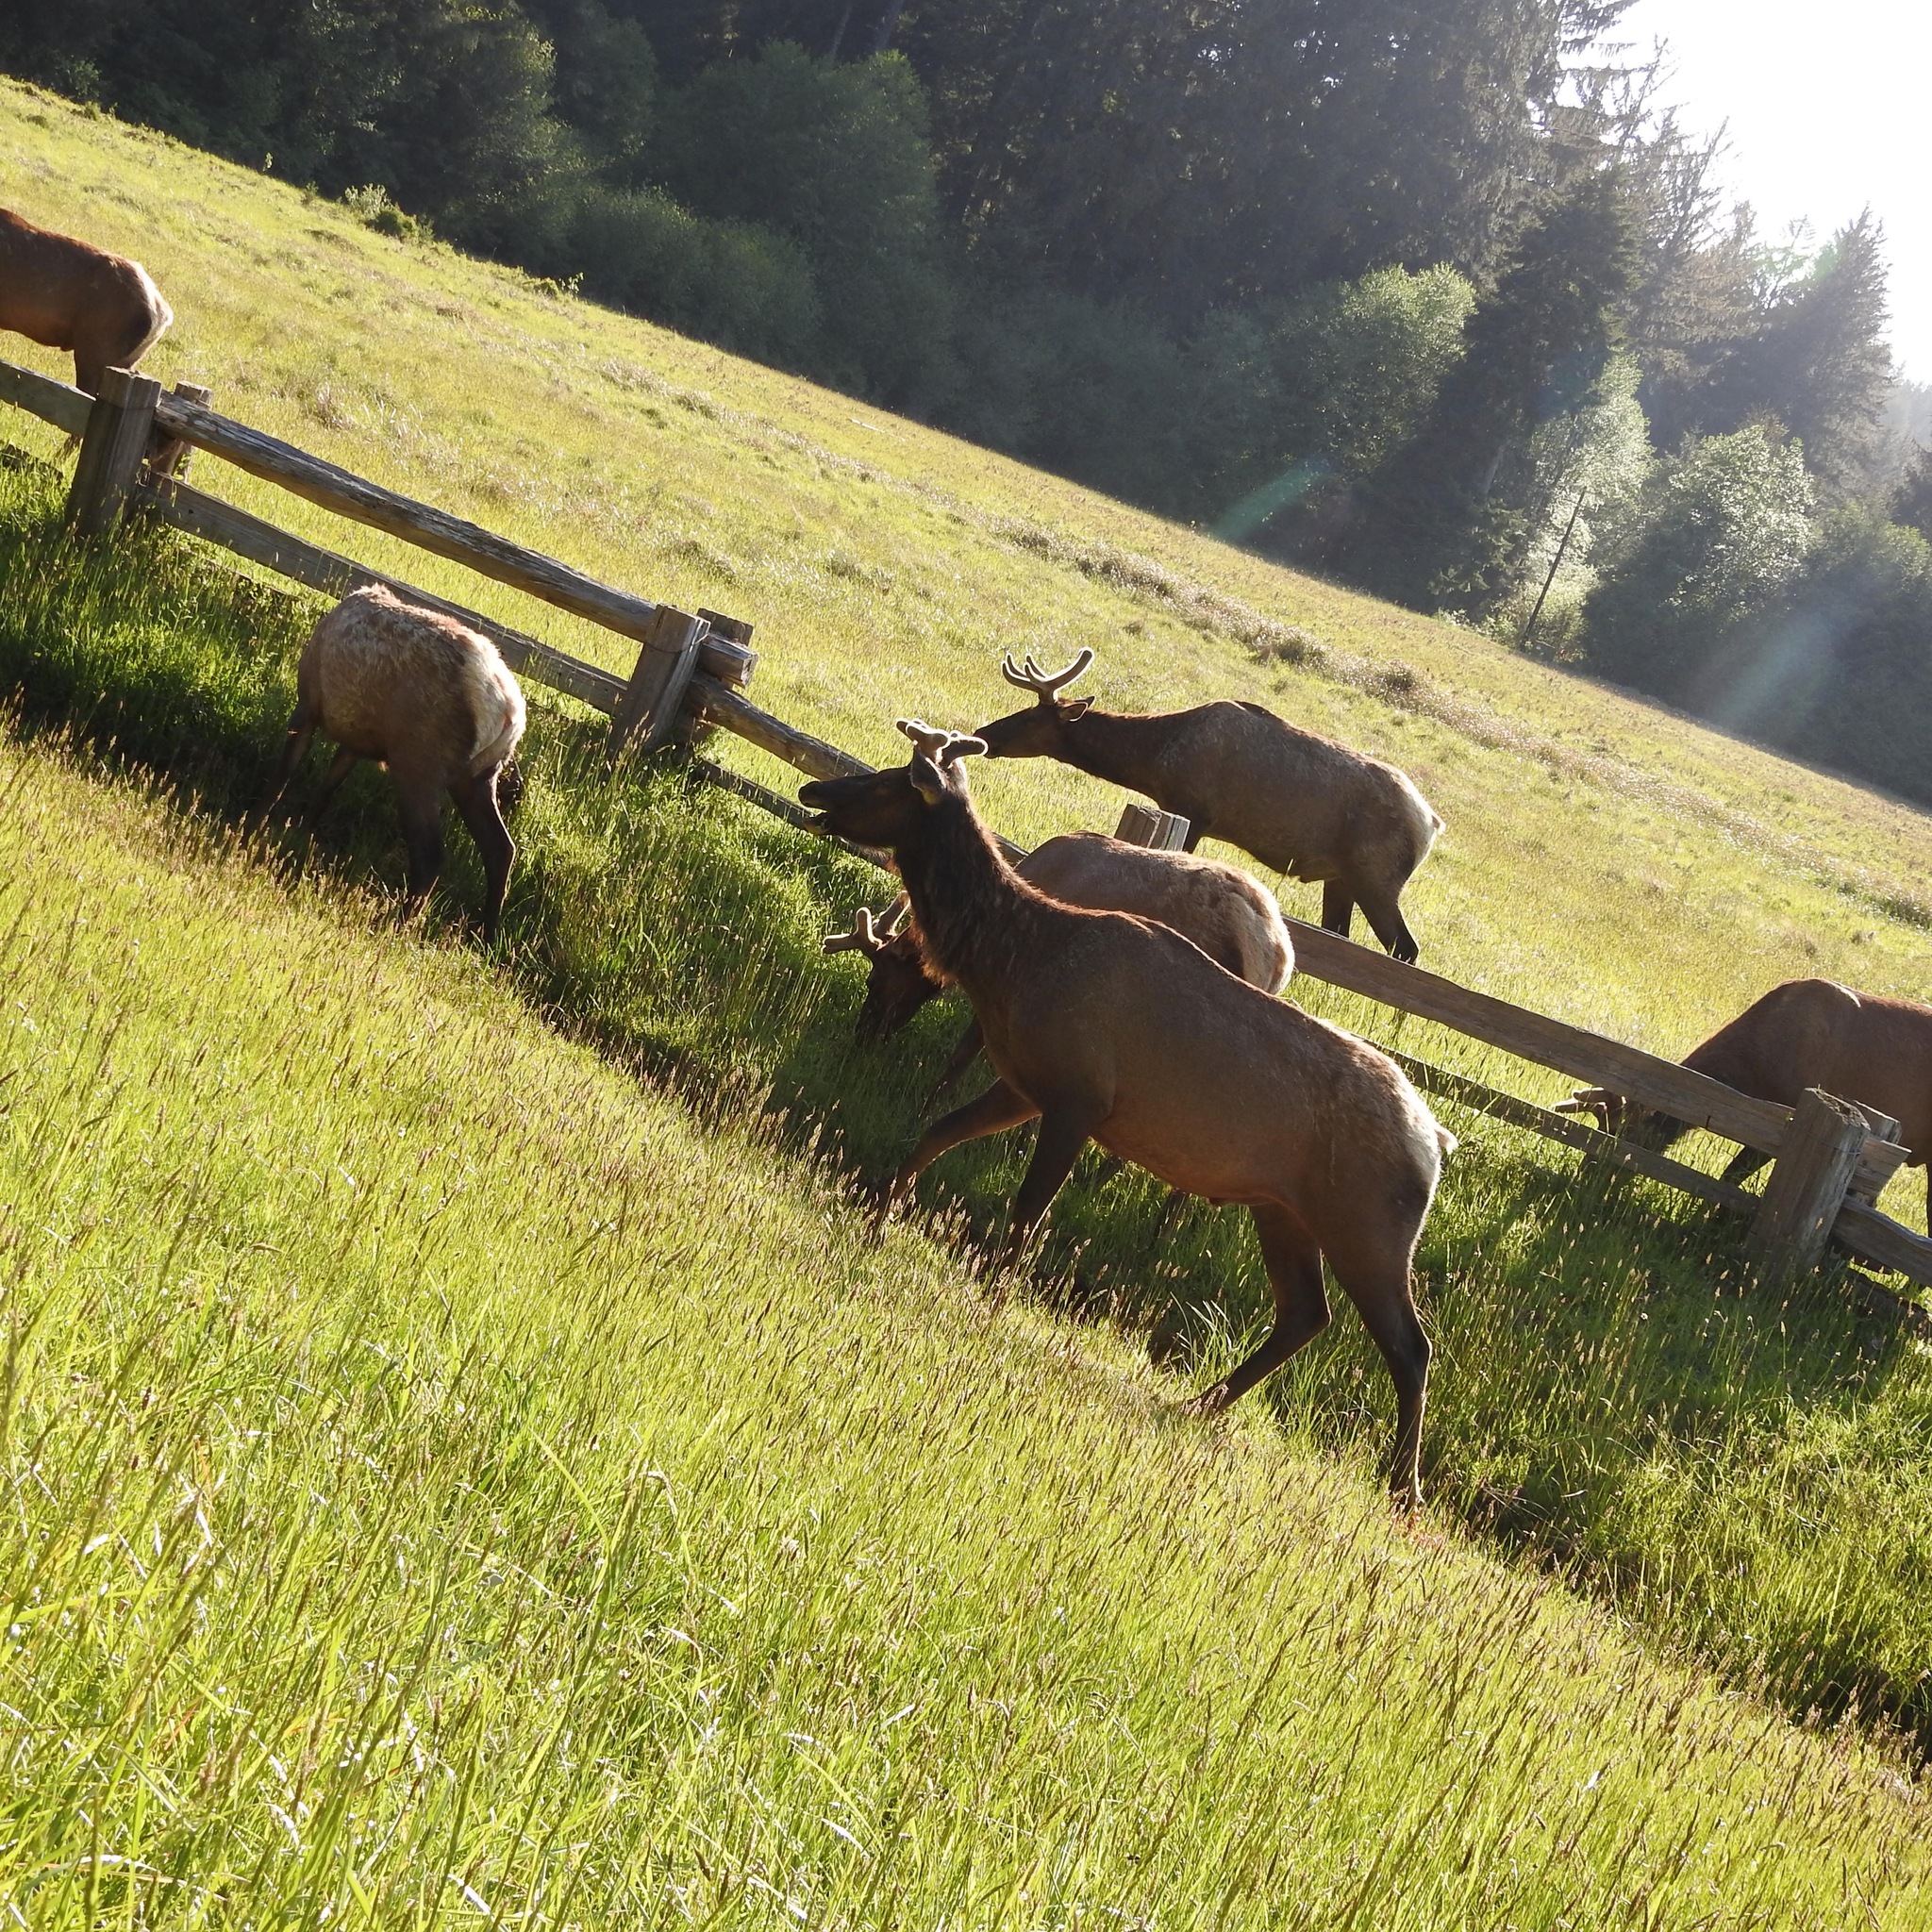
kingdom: Animalia
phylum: Chordata
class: Mammalia
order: Artiodactyla
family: Cervidae
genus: Cervus
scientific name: Cervus elaphus
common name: Red deer
